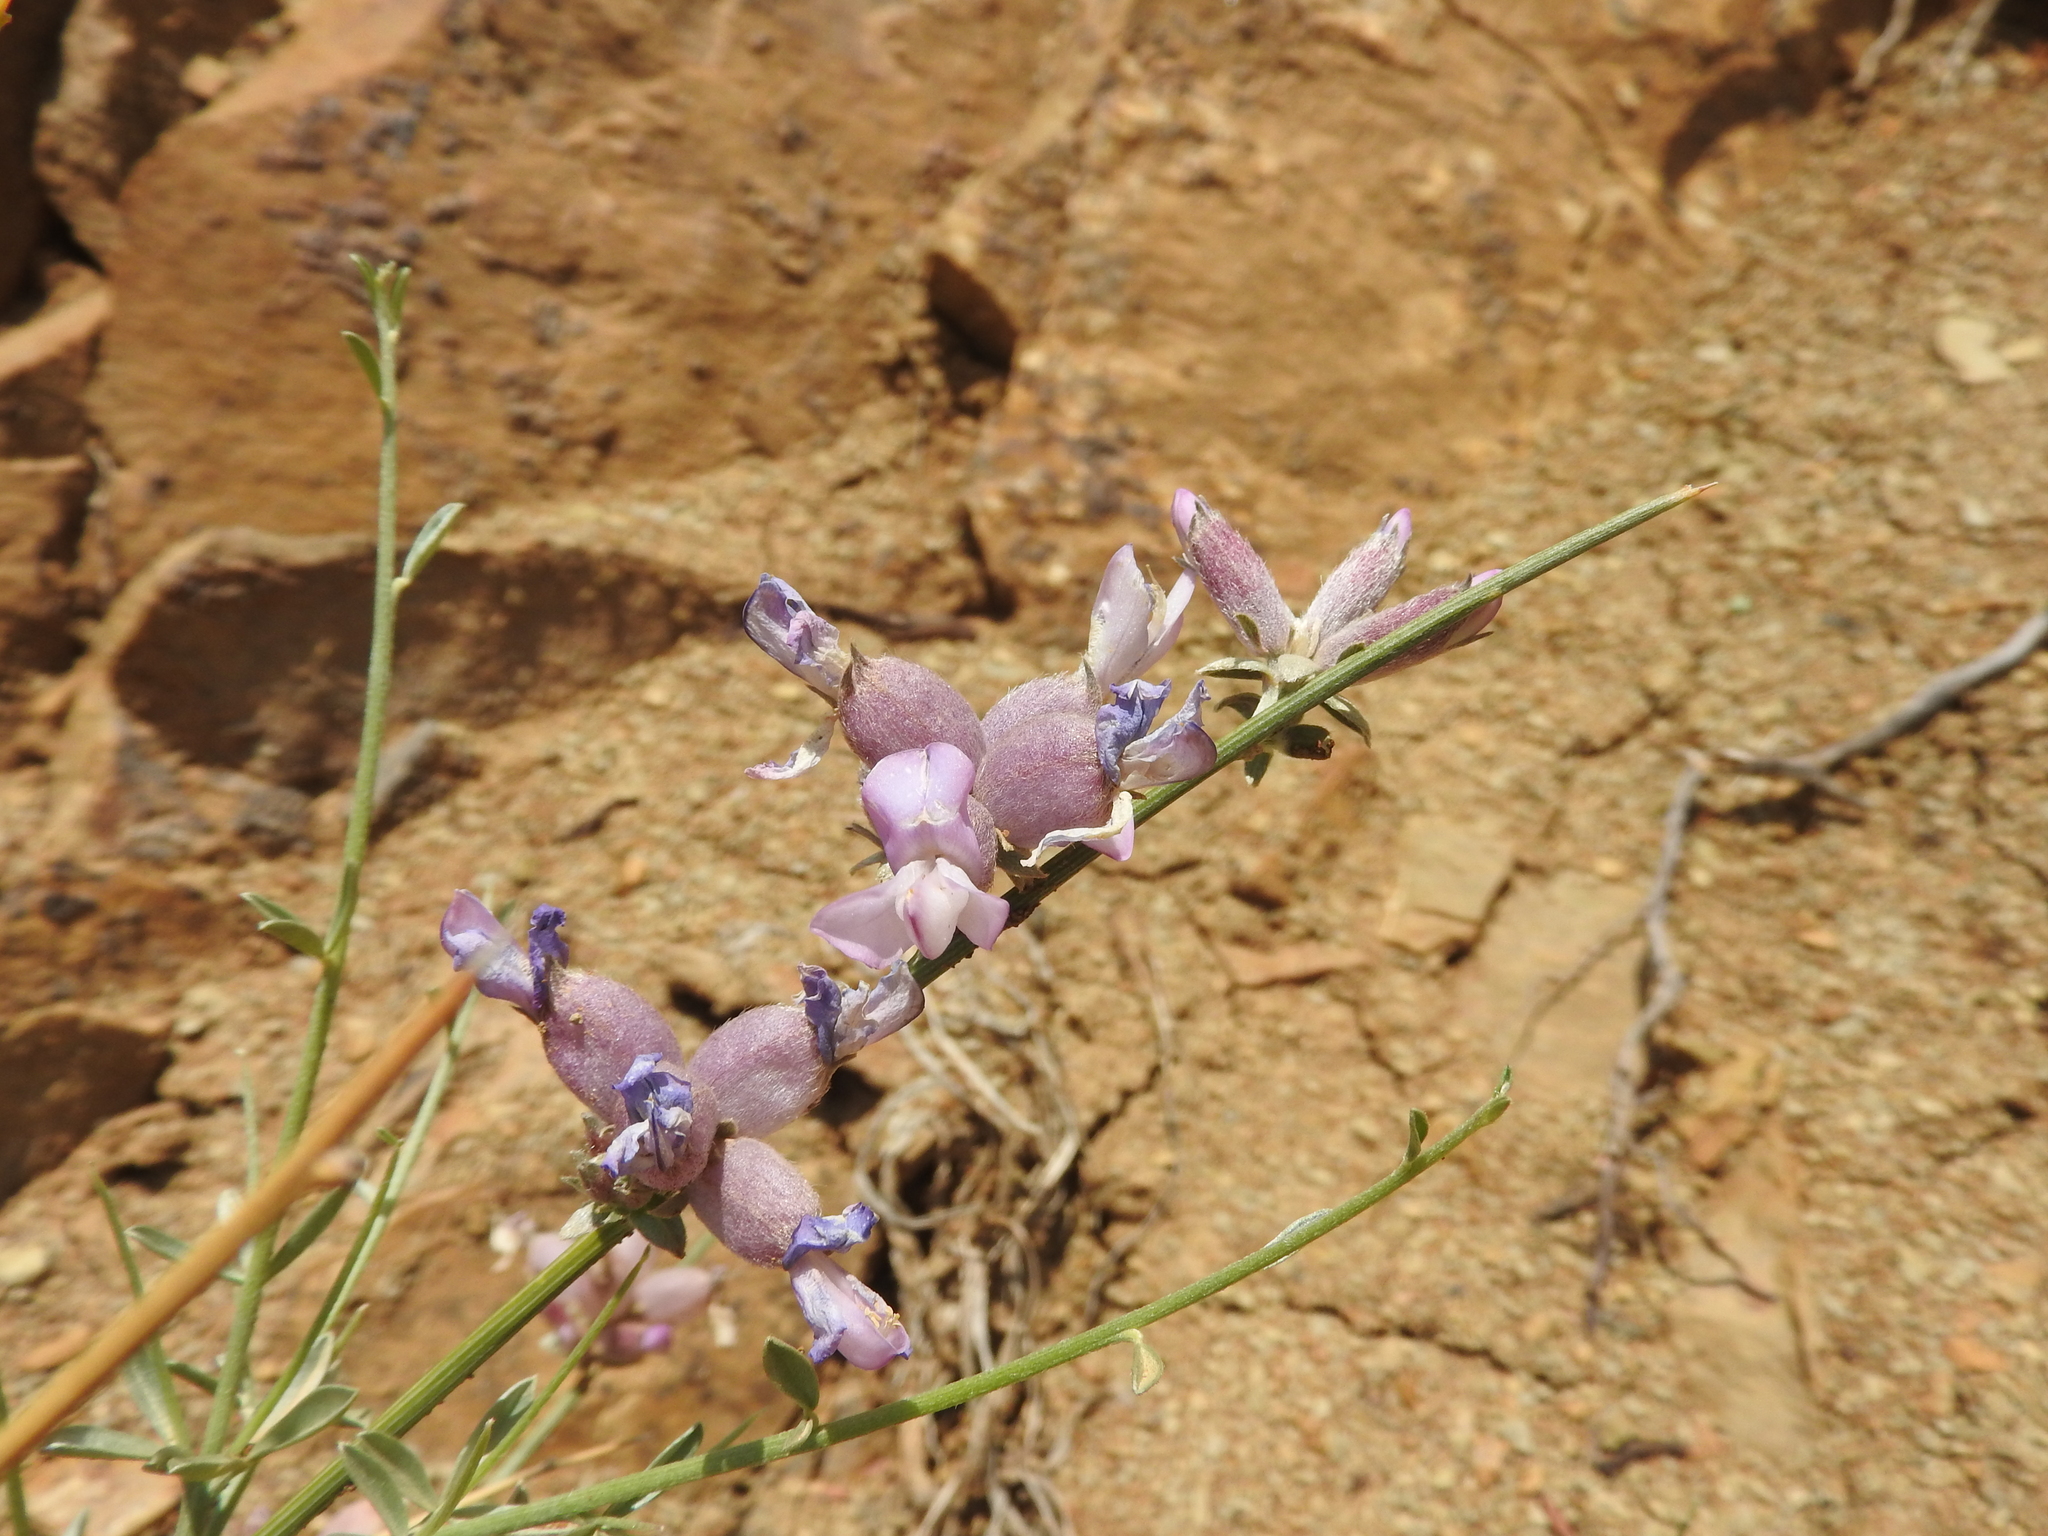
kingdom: Plantae
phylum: Tracheophyta
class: Magnoliopsida
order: Fabales
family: Fabaceae
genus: Erinacea
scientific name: Erinacea anthyllis
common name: Hedgehog-broom
